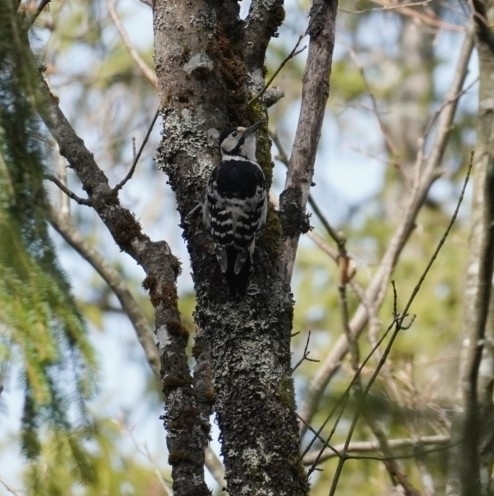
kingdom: Animalia
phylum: Chordata
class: Aves
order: Piciformes
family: Picidae
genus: Dendrocopos
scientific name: Dendrocopos leucotos
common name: White-backed woodpecker
